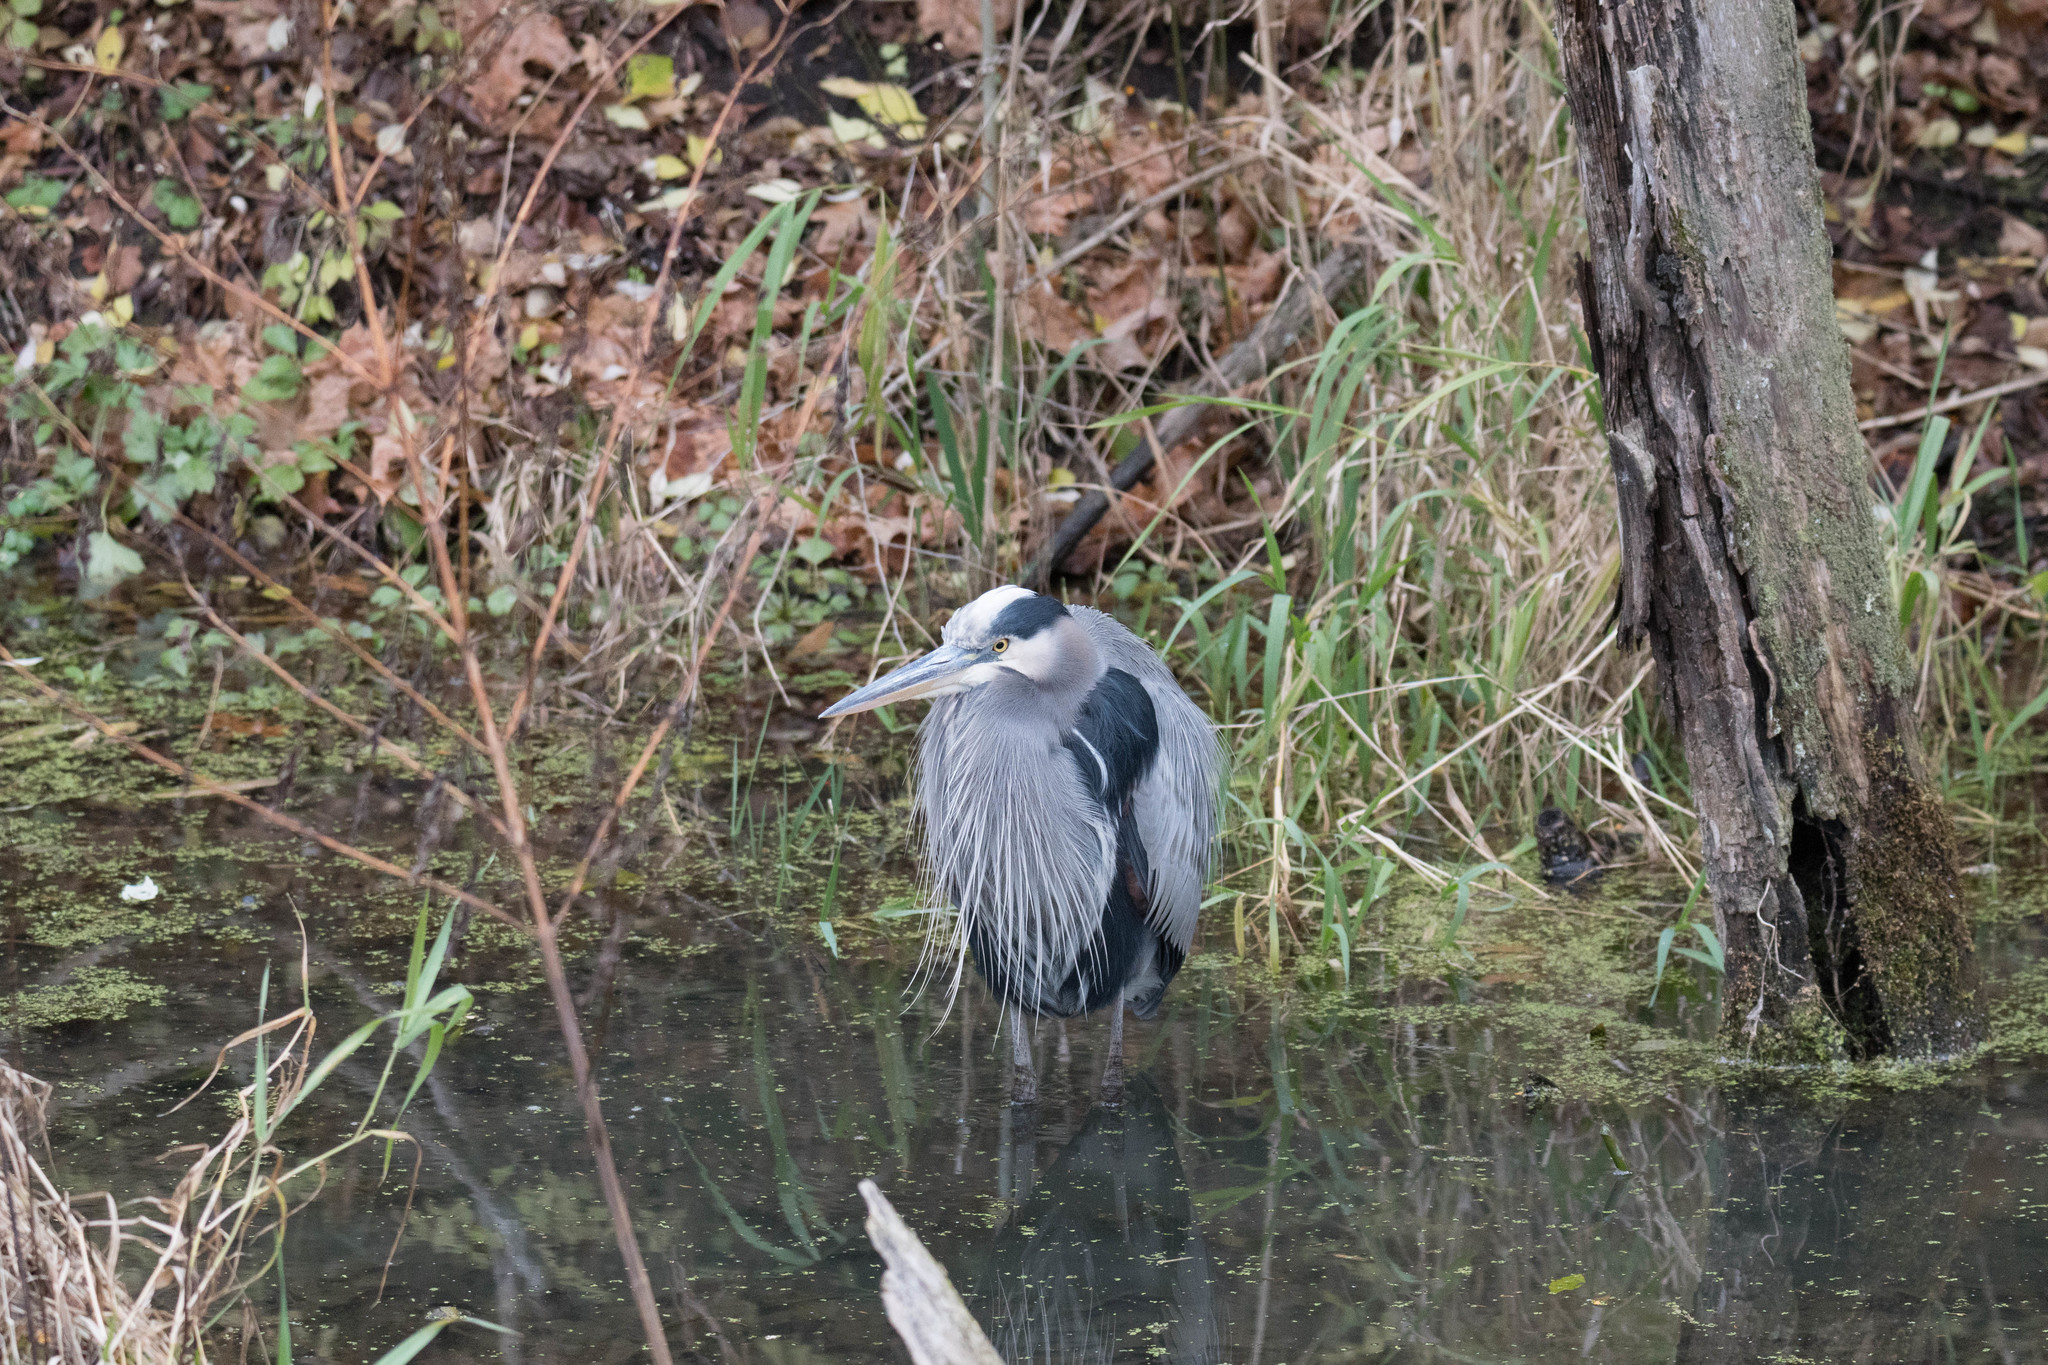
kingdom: Animalia
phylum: Chordata
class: Aves
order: Pelecaniformes
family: Ardeidae
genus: Ardea
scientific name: Ardea herodias
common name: Great blue heron
